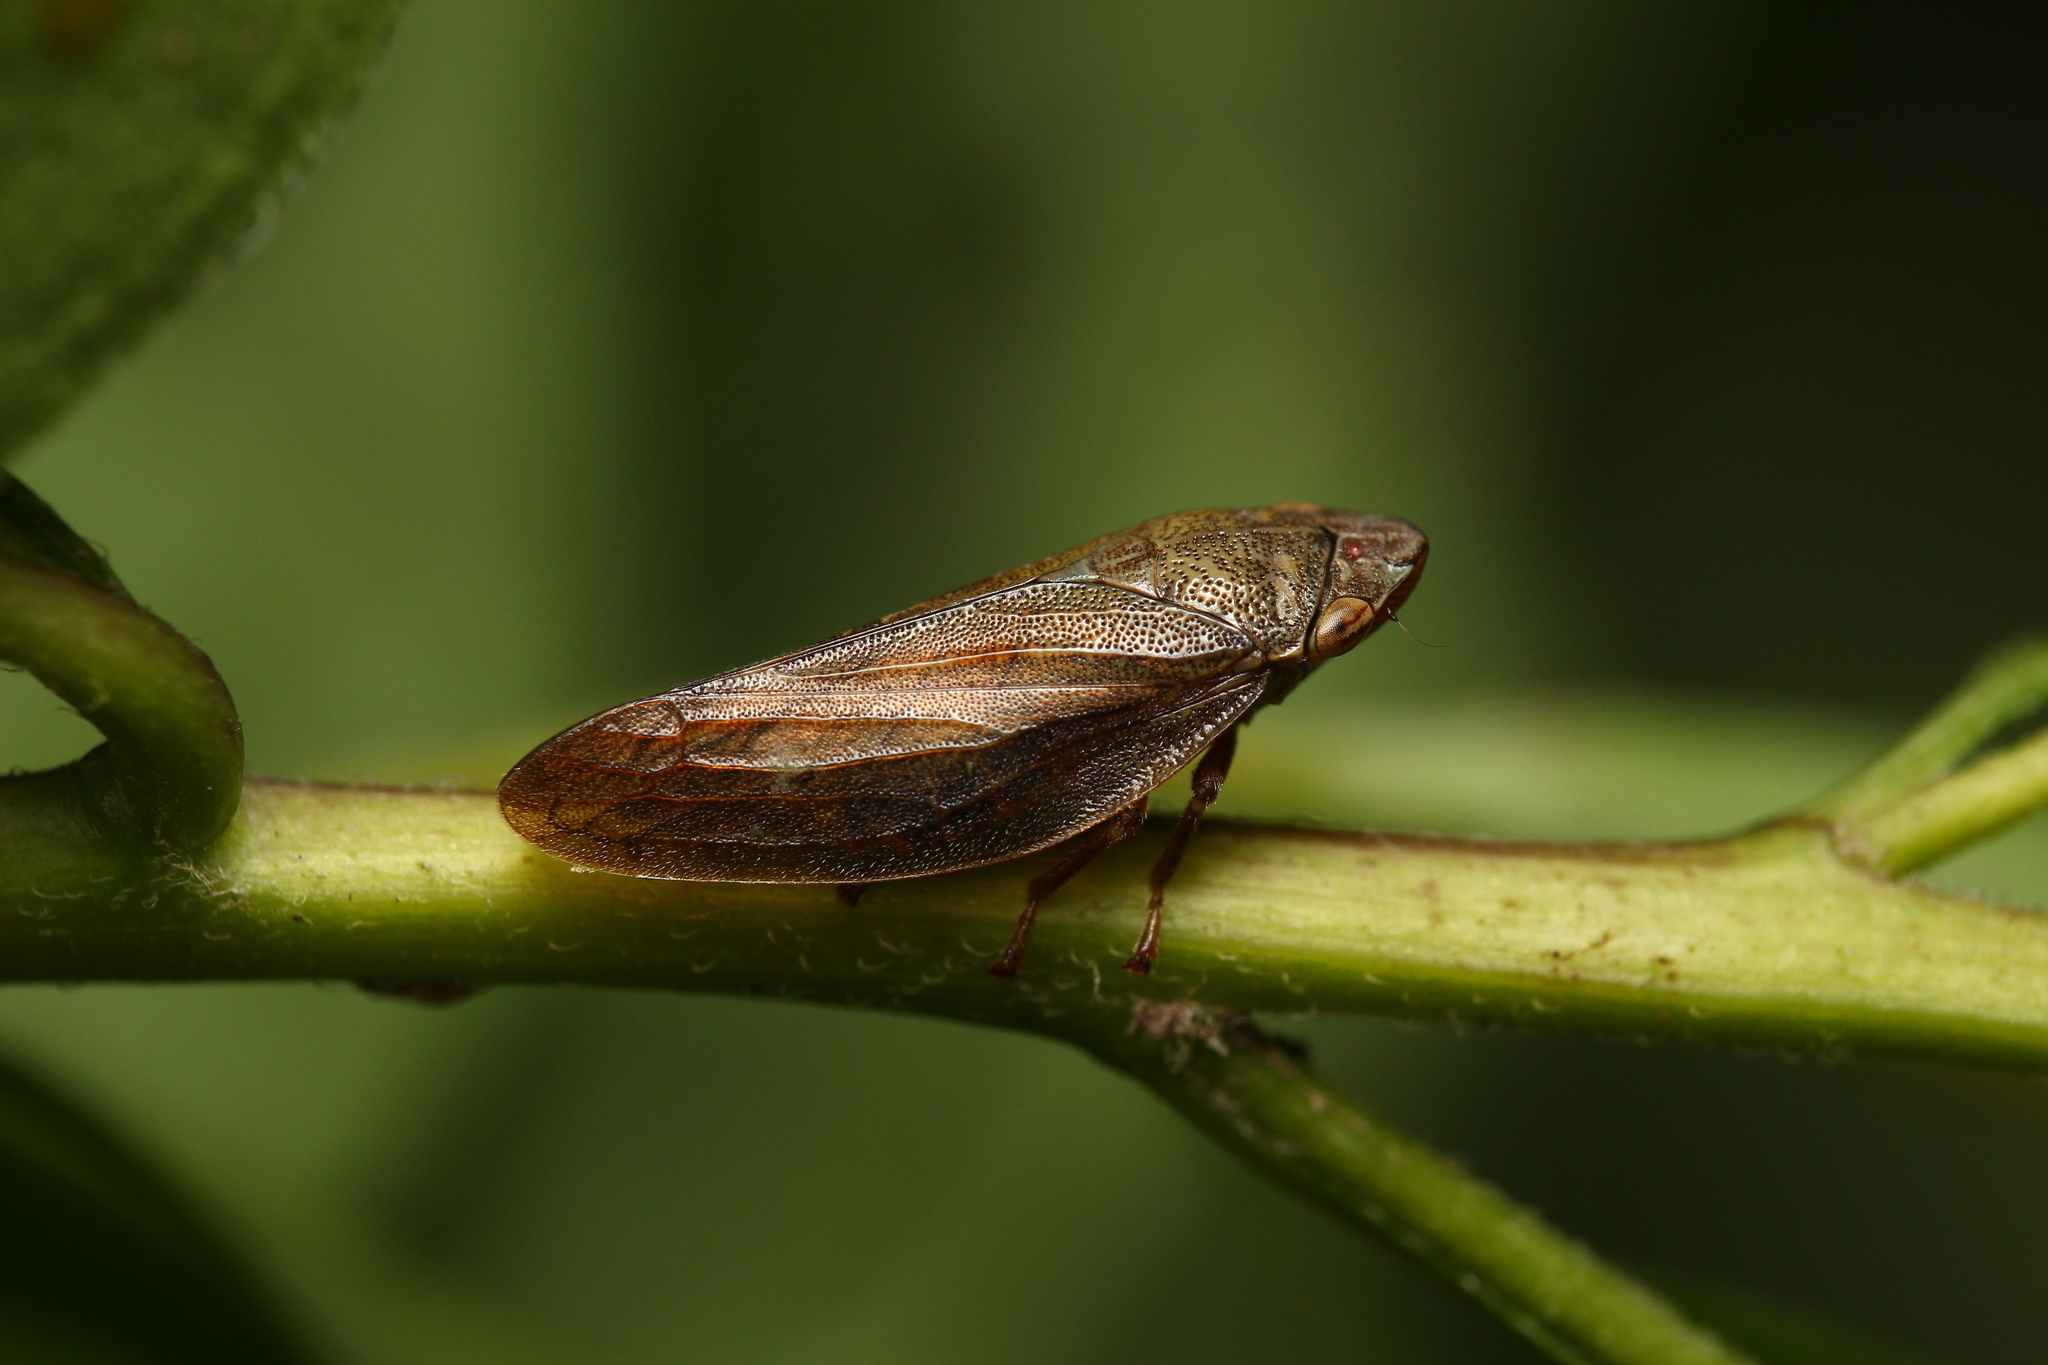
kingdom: Animalia
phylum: Arthropoda
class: Insecta
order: Hemiptera
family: Aphrophoridae
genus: Aphrophora
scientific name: Aphrophora salicina
